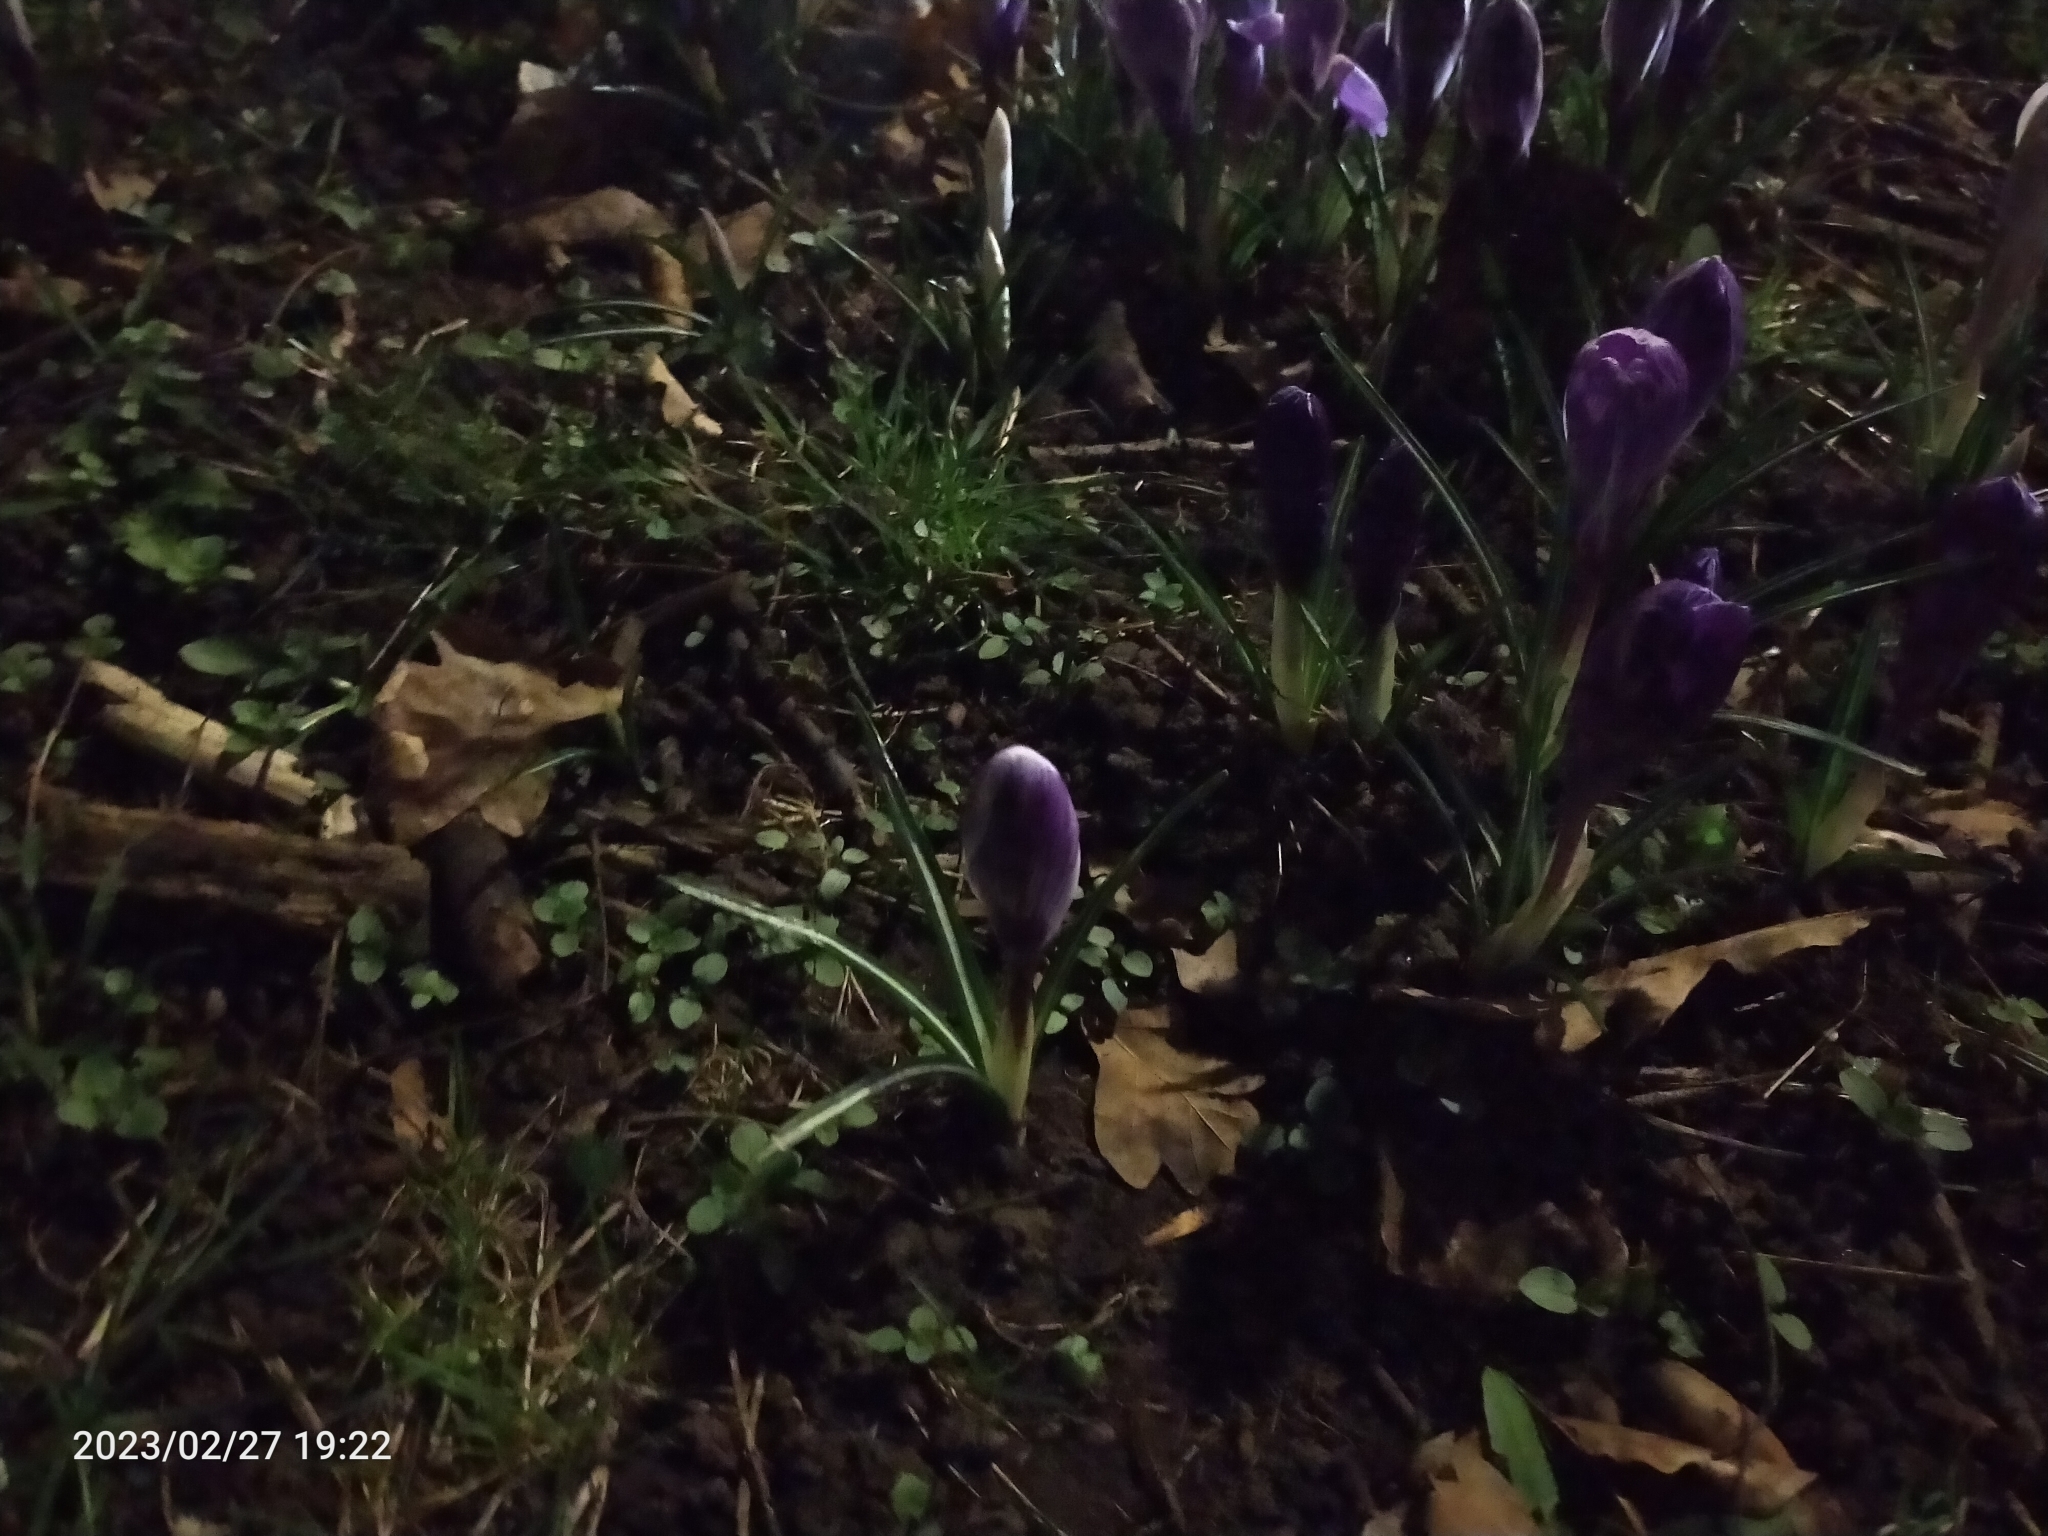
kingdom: Plantae
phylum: Tracheophyta
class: Liliopsida
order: Asparagales
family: Iridaceae
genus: Crocus
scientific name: Crocus neapolitanus
